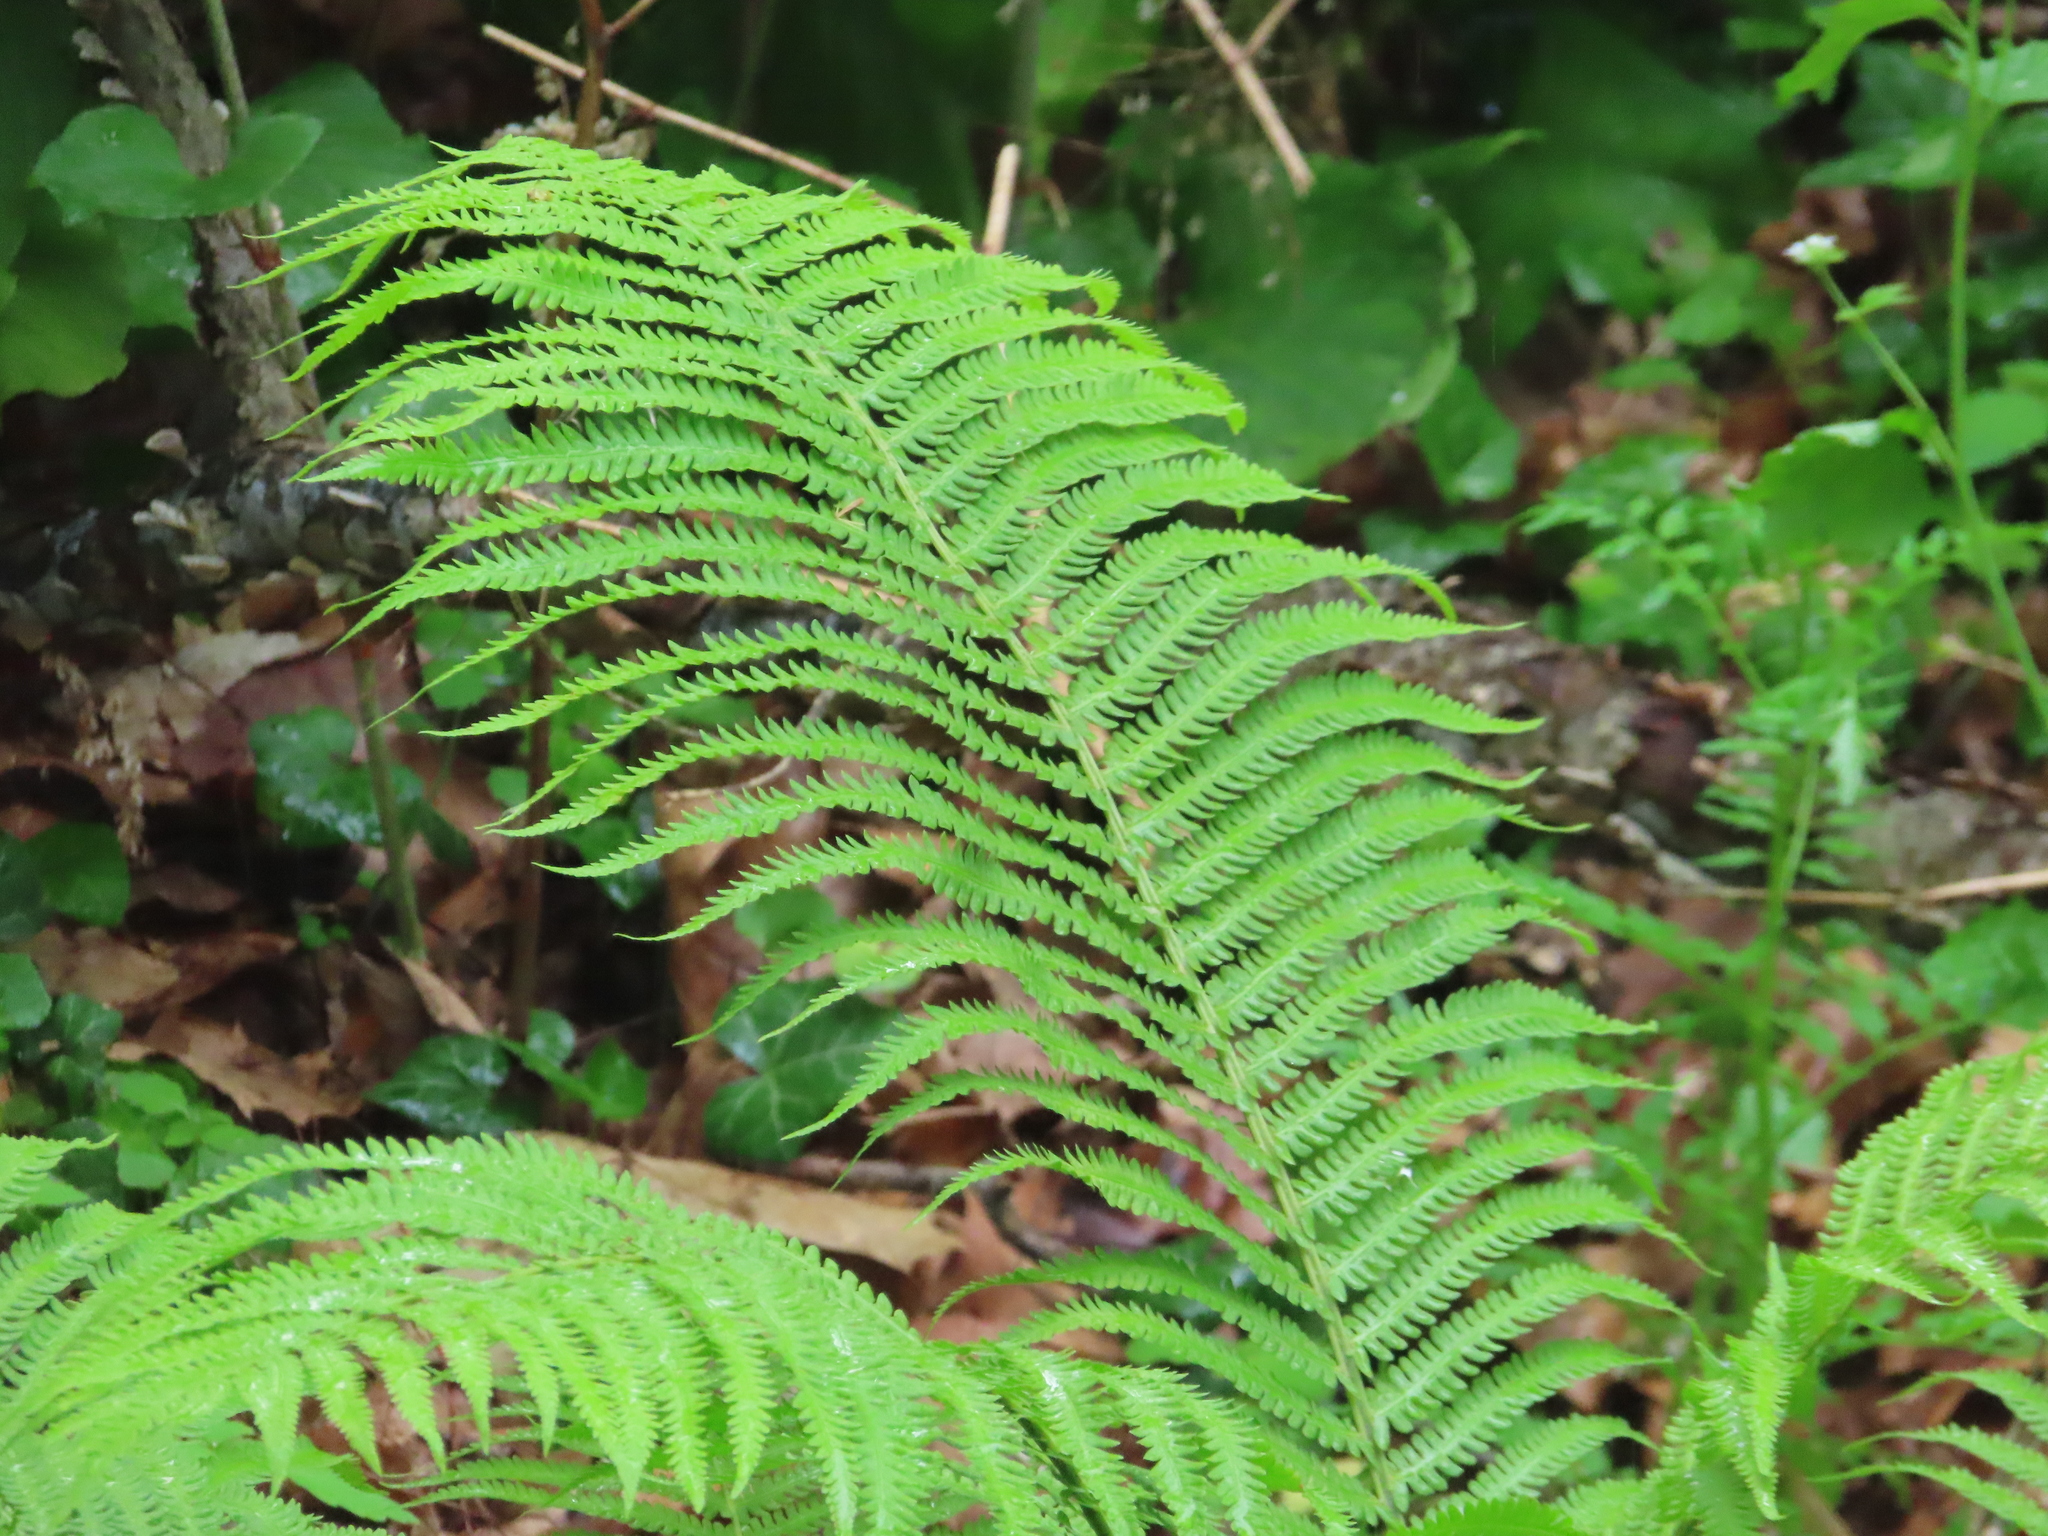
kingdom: Plantae
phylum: Tracheophyta
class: Polypodiopsida
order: Polypodiales
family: Onocleaceae
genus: Matteuccia
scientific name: Matteuccia struthiopteris
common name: Ostrich fern
